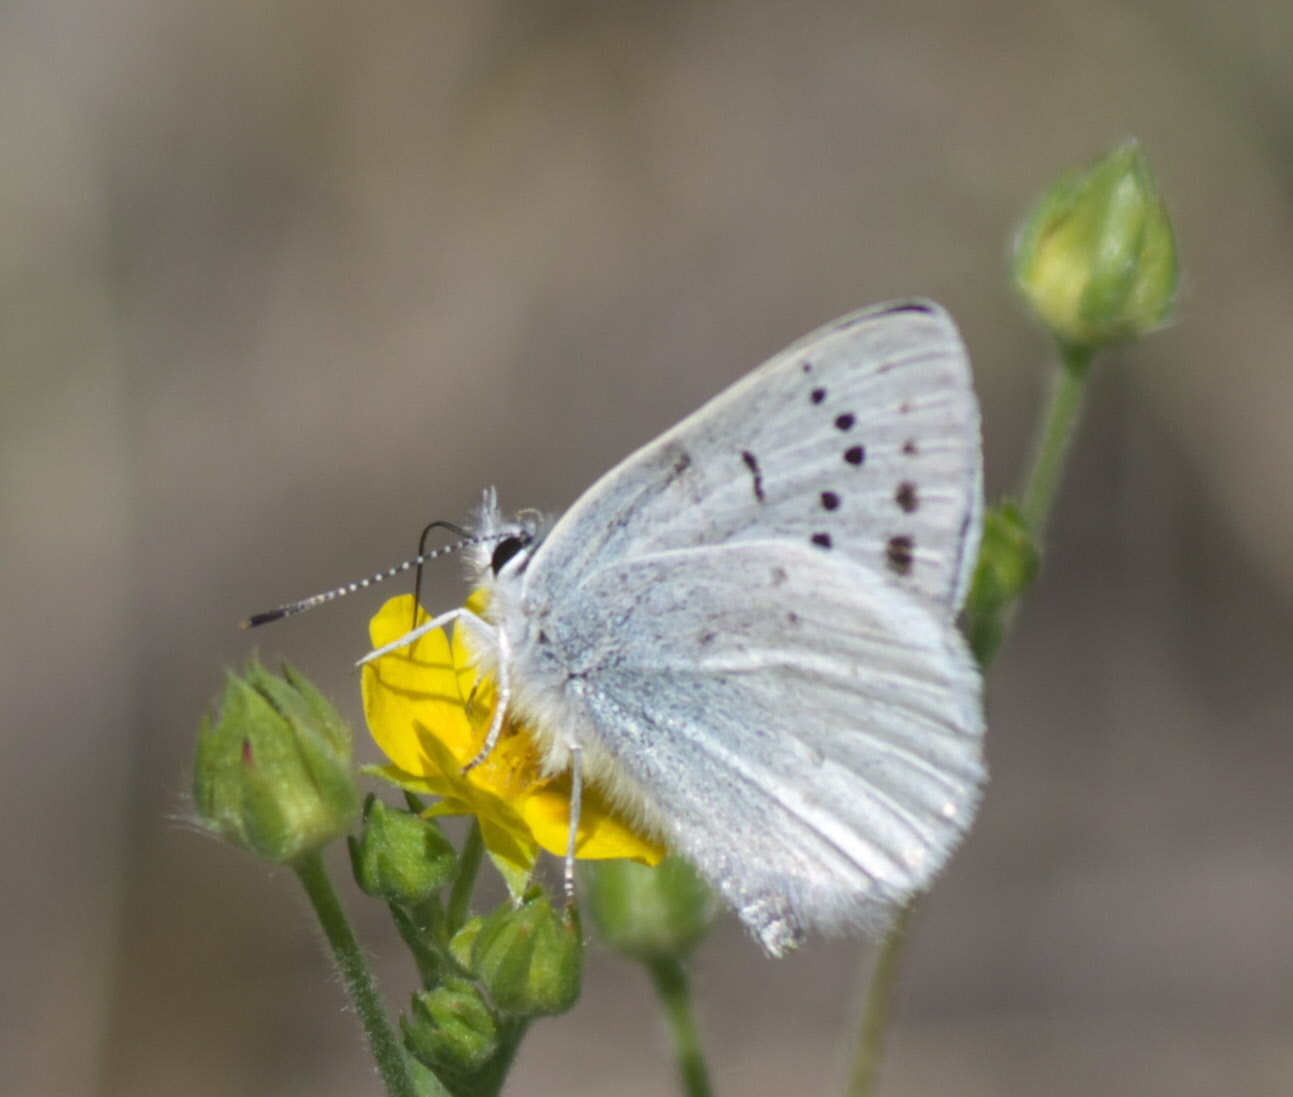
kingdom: Animalia
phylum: Arthropoda
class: Insecta
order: Lepidoptera
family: Lycaenidae
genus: Tharsalea
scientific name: Tharsalea heteronea
